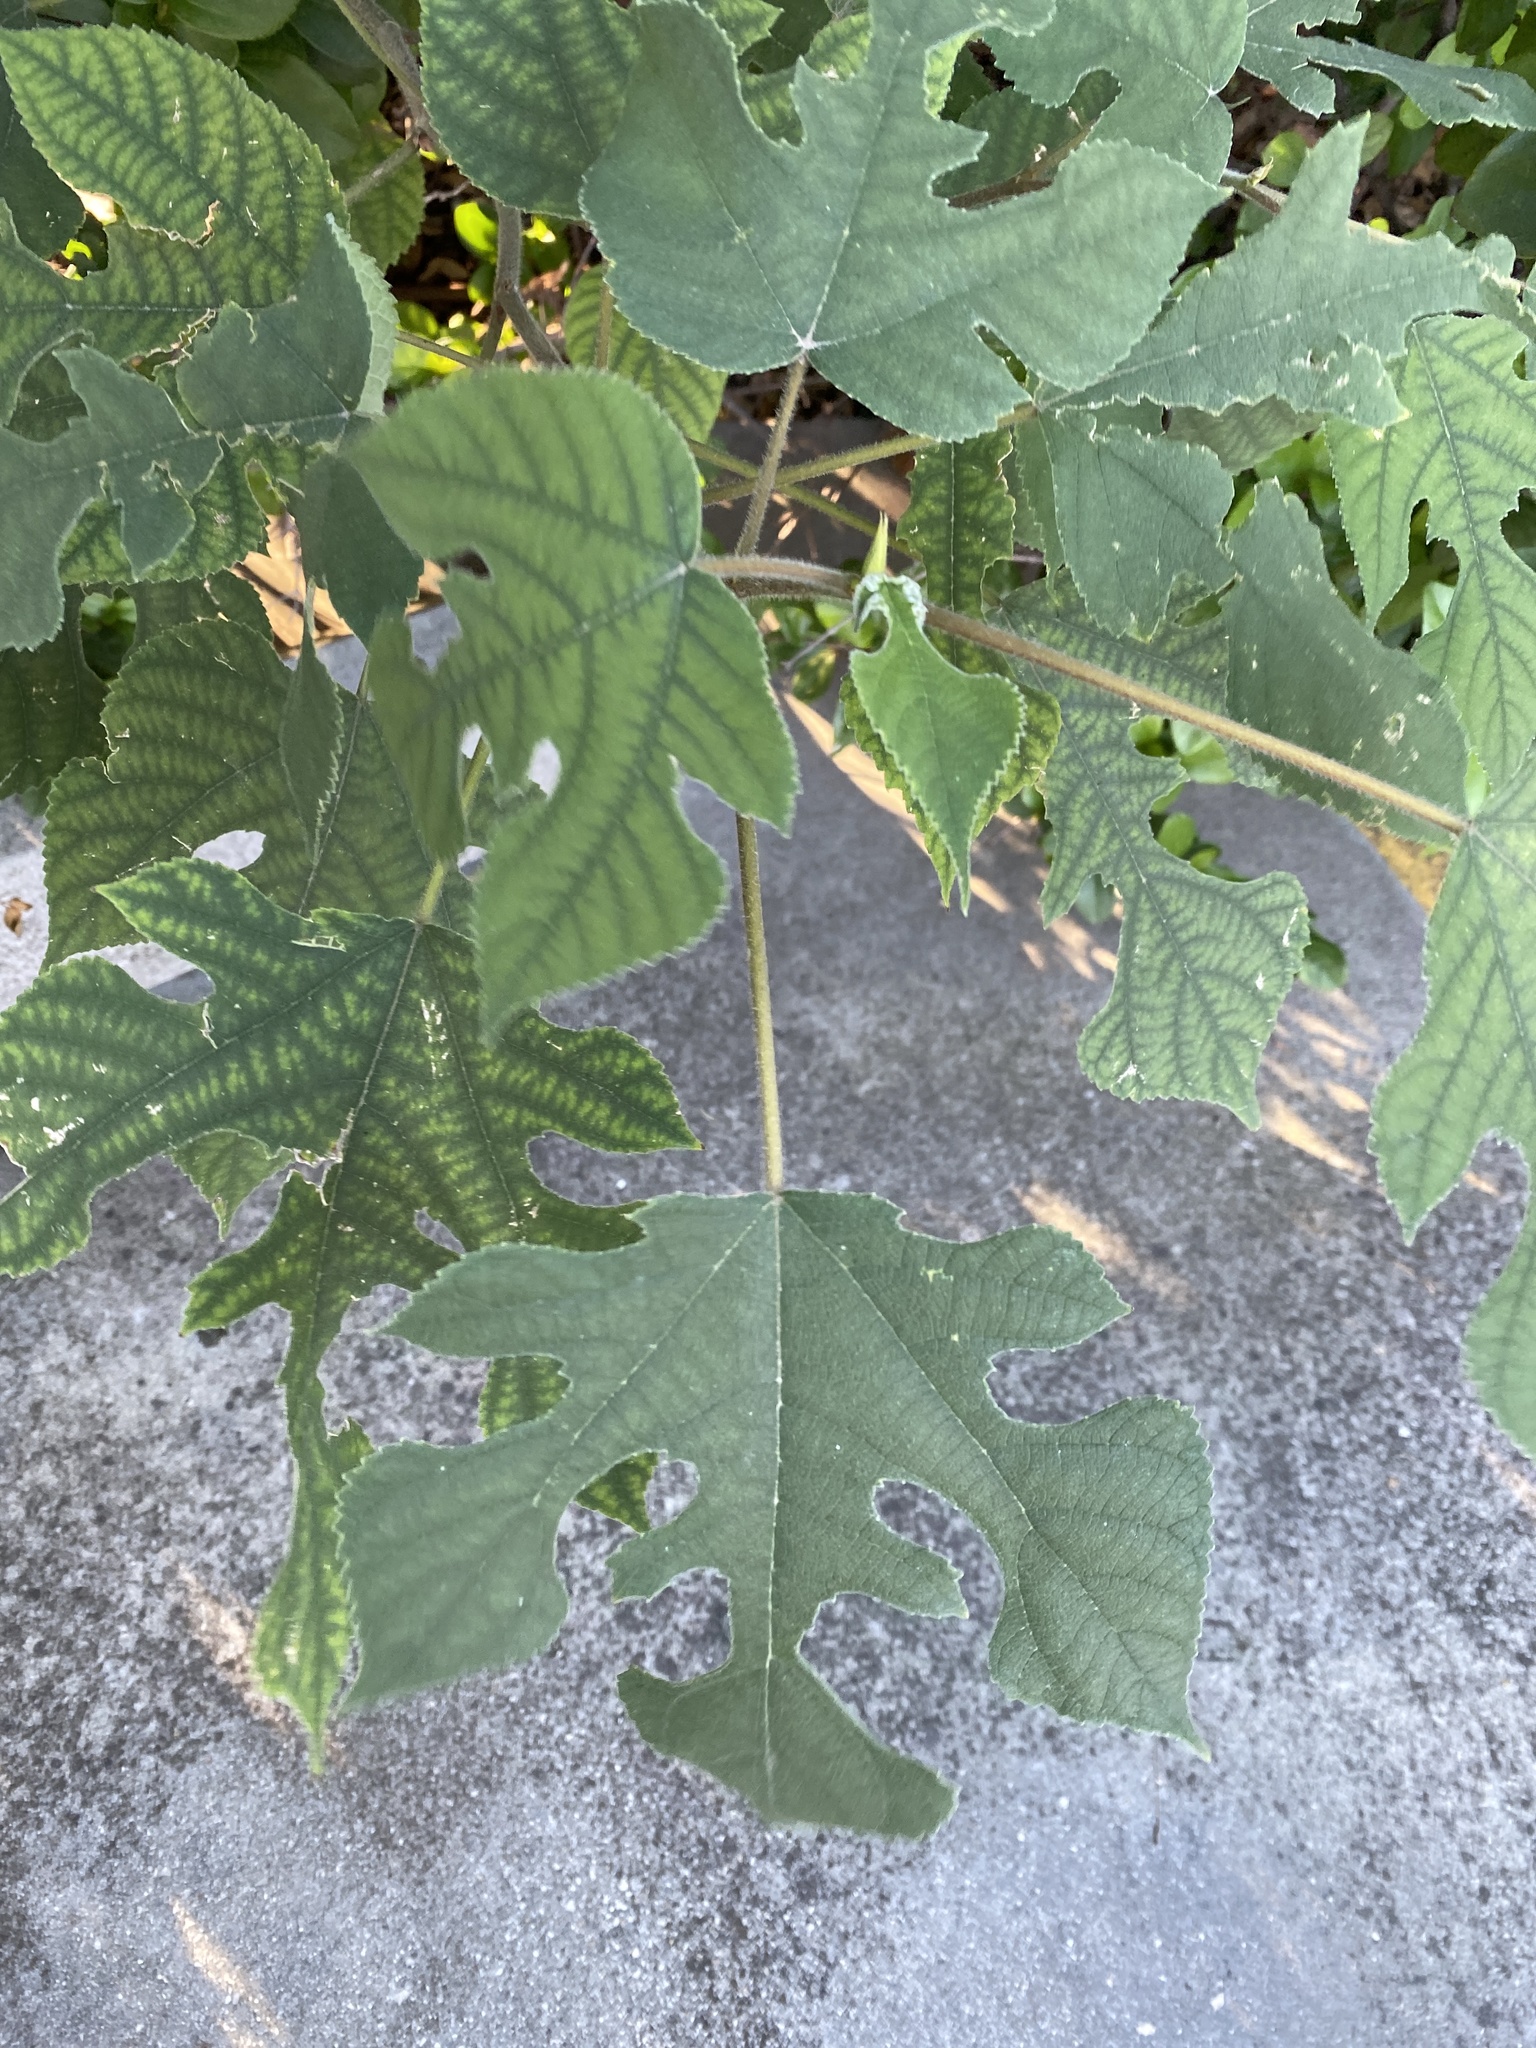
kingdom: Plantae
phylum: Tracheophyta
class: Magnoliopsida
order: Rosales
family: Moraceae
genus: Broussonetia
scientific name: Broussonetia papyrifera
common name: Paper mulberry
